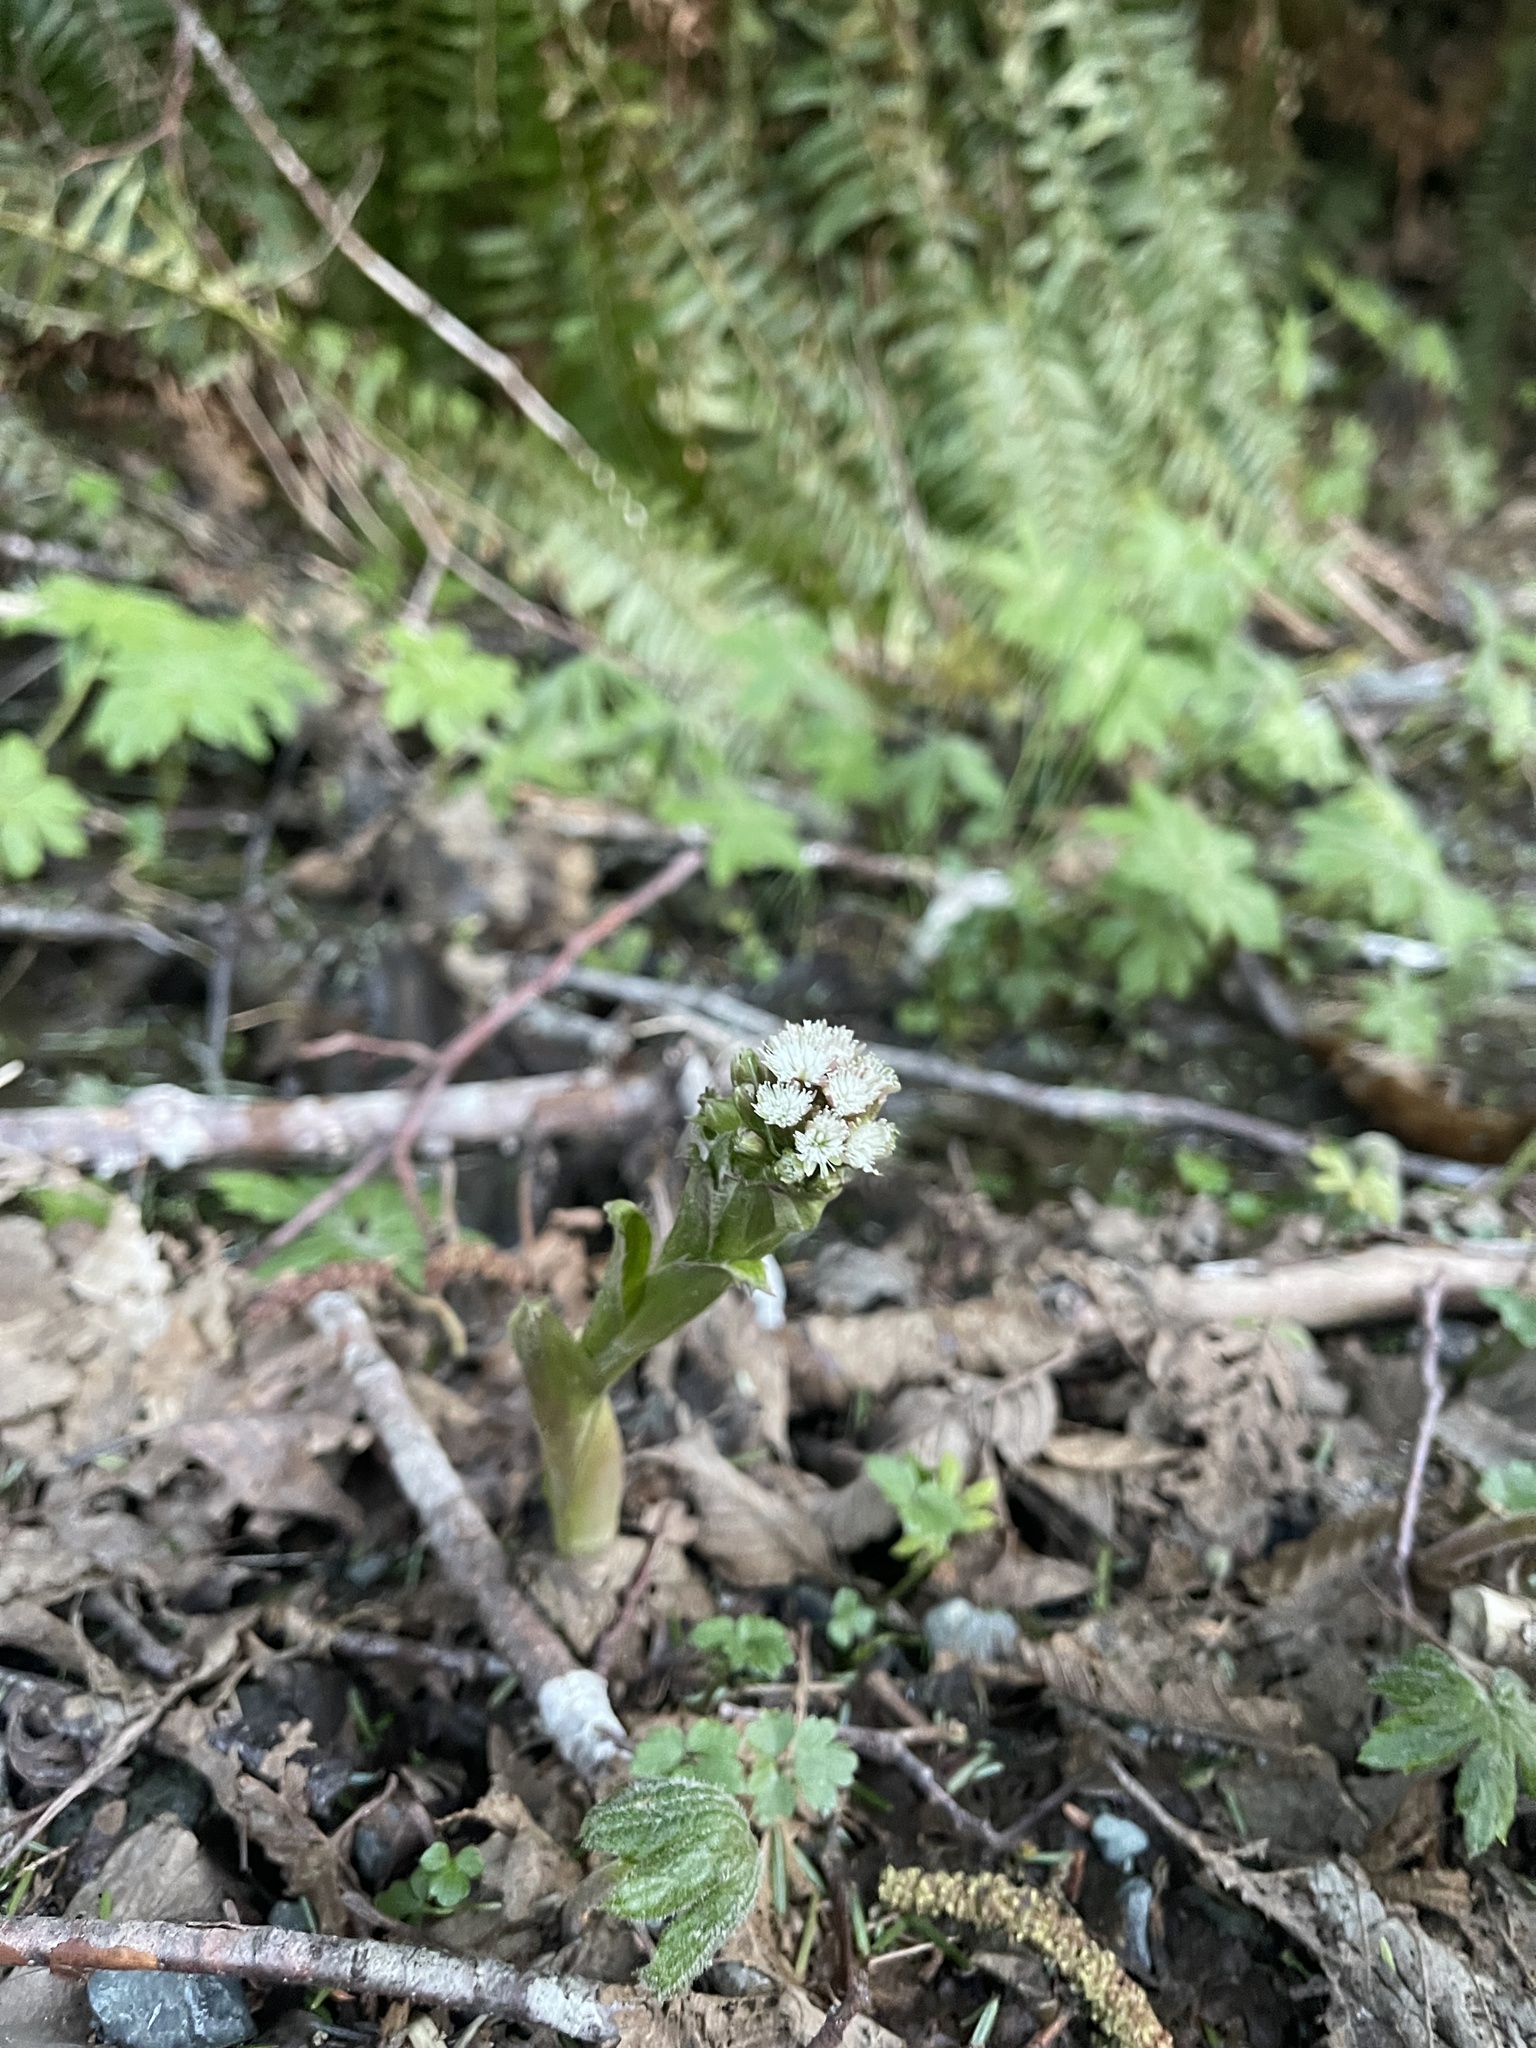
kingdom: Plantae
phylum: Tracheophyta
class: Magnoliopsida
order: Asterales
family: Asteraceae
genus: Petasites
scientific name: Petasites frigidus
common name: Arctic butterbur
